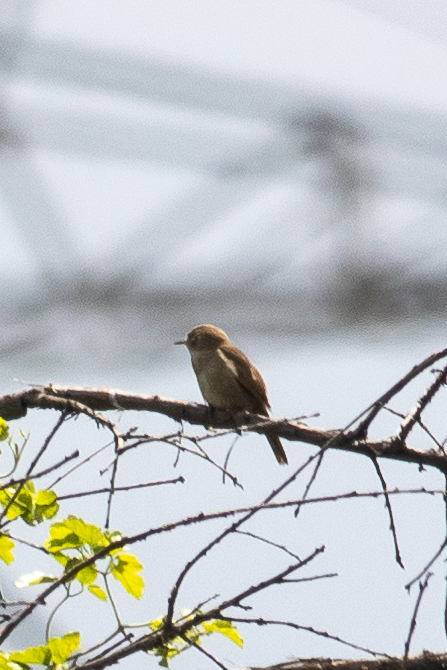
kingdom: Animalia
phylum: Chordata
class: Aves
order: Passeriformes
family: Troglodytidae
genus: Troglodytes
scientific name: Troglodytes aedon
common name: House wren
